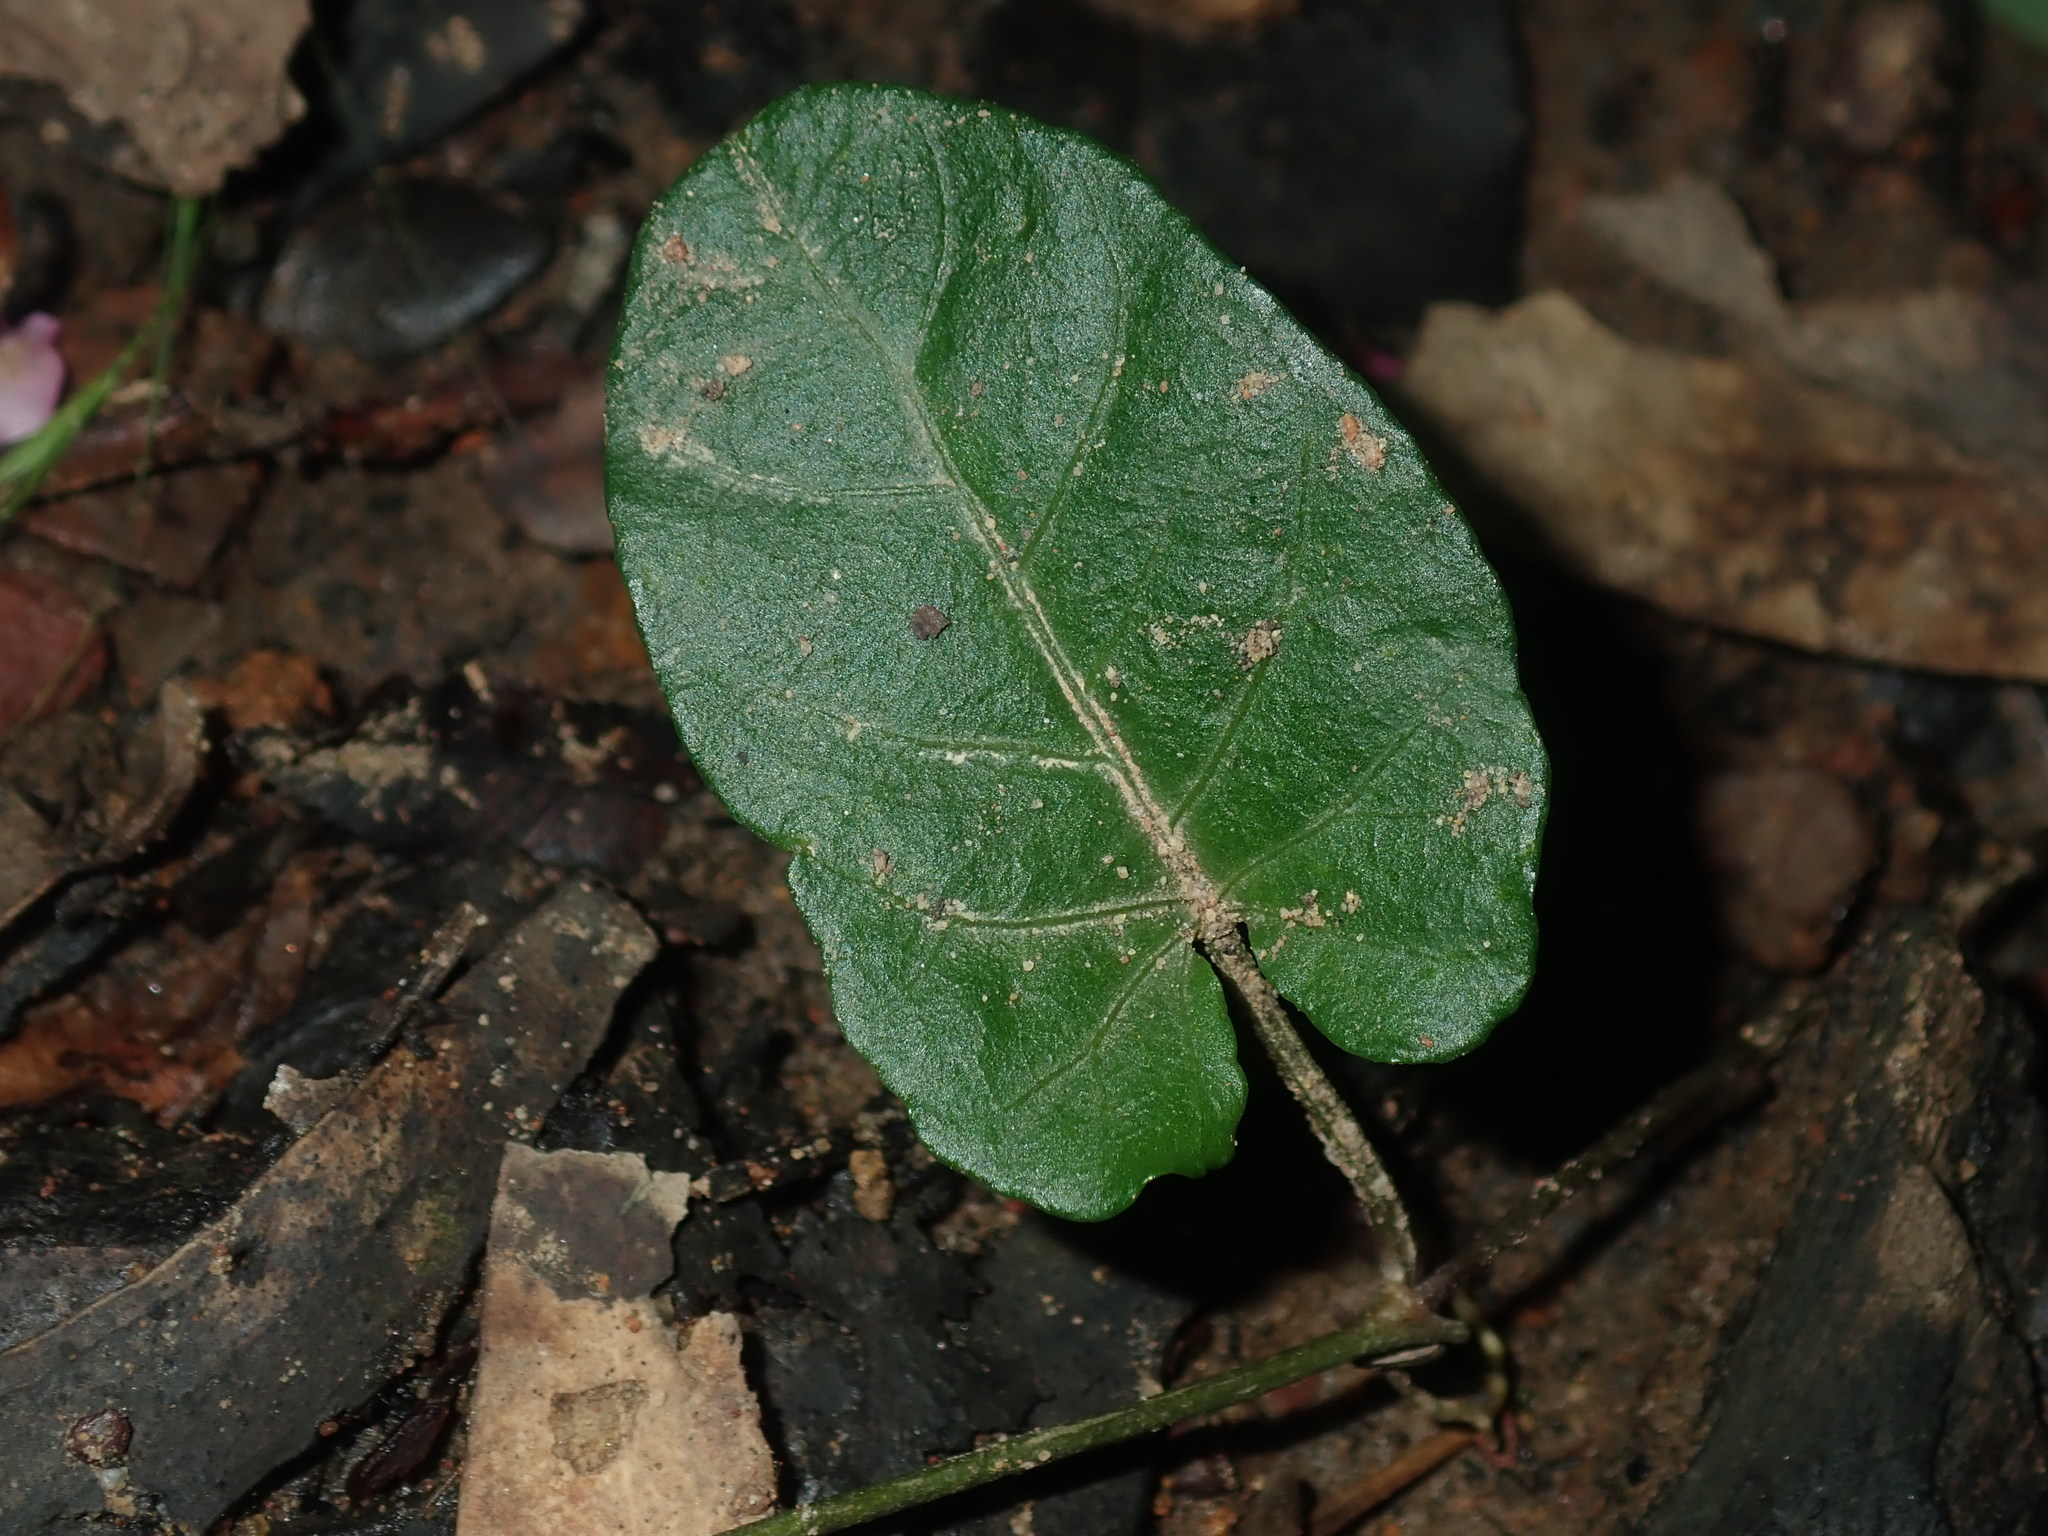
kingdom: Plantae
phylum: Tracheophyta
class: Magnoliopsida
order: Solanales
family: Convolvulaceae
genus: Polymeria
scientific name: Polymeria calycina
